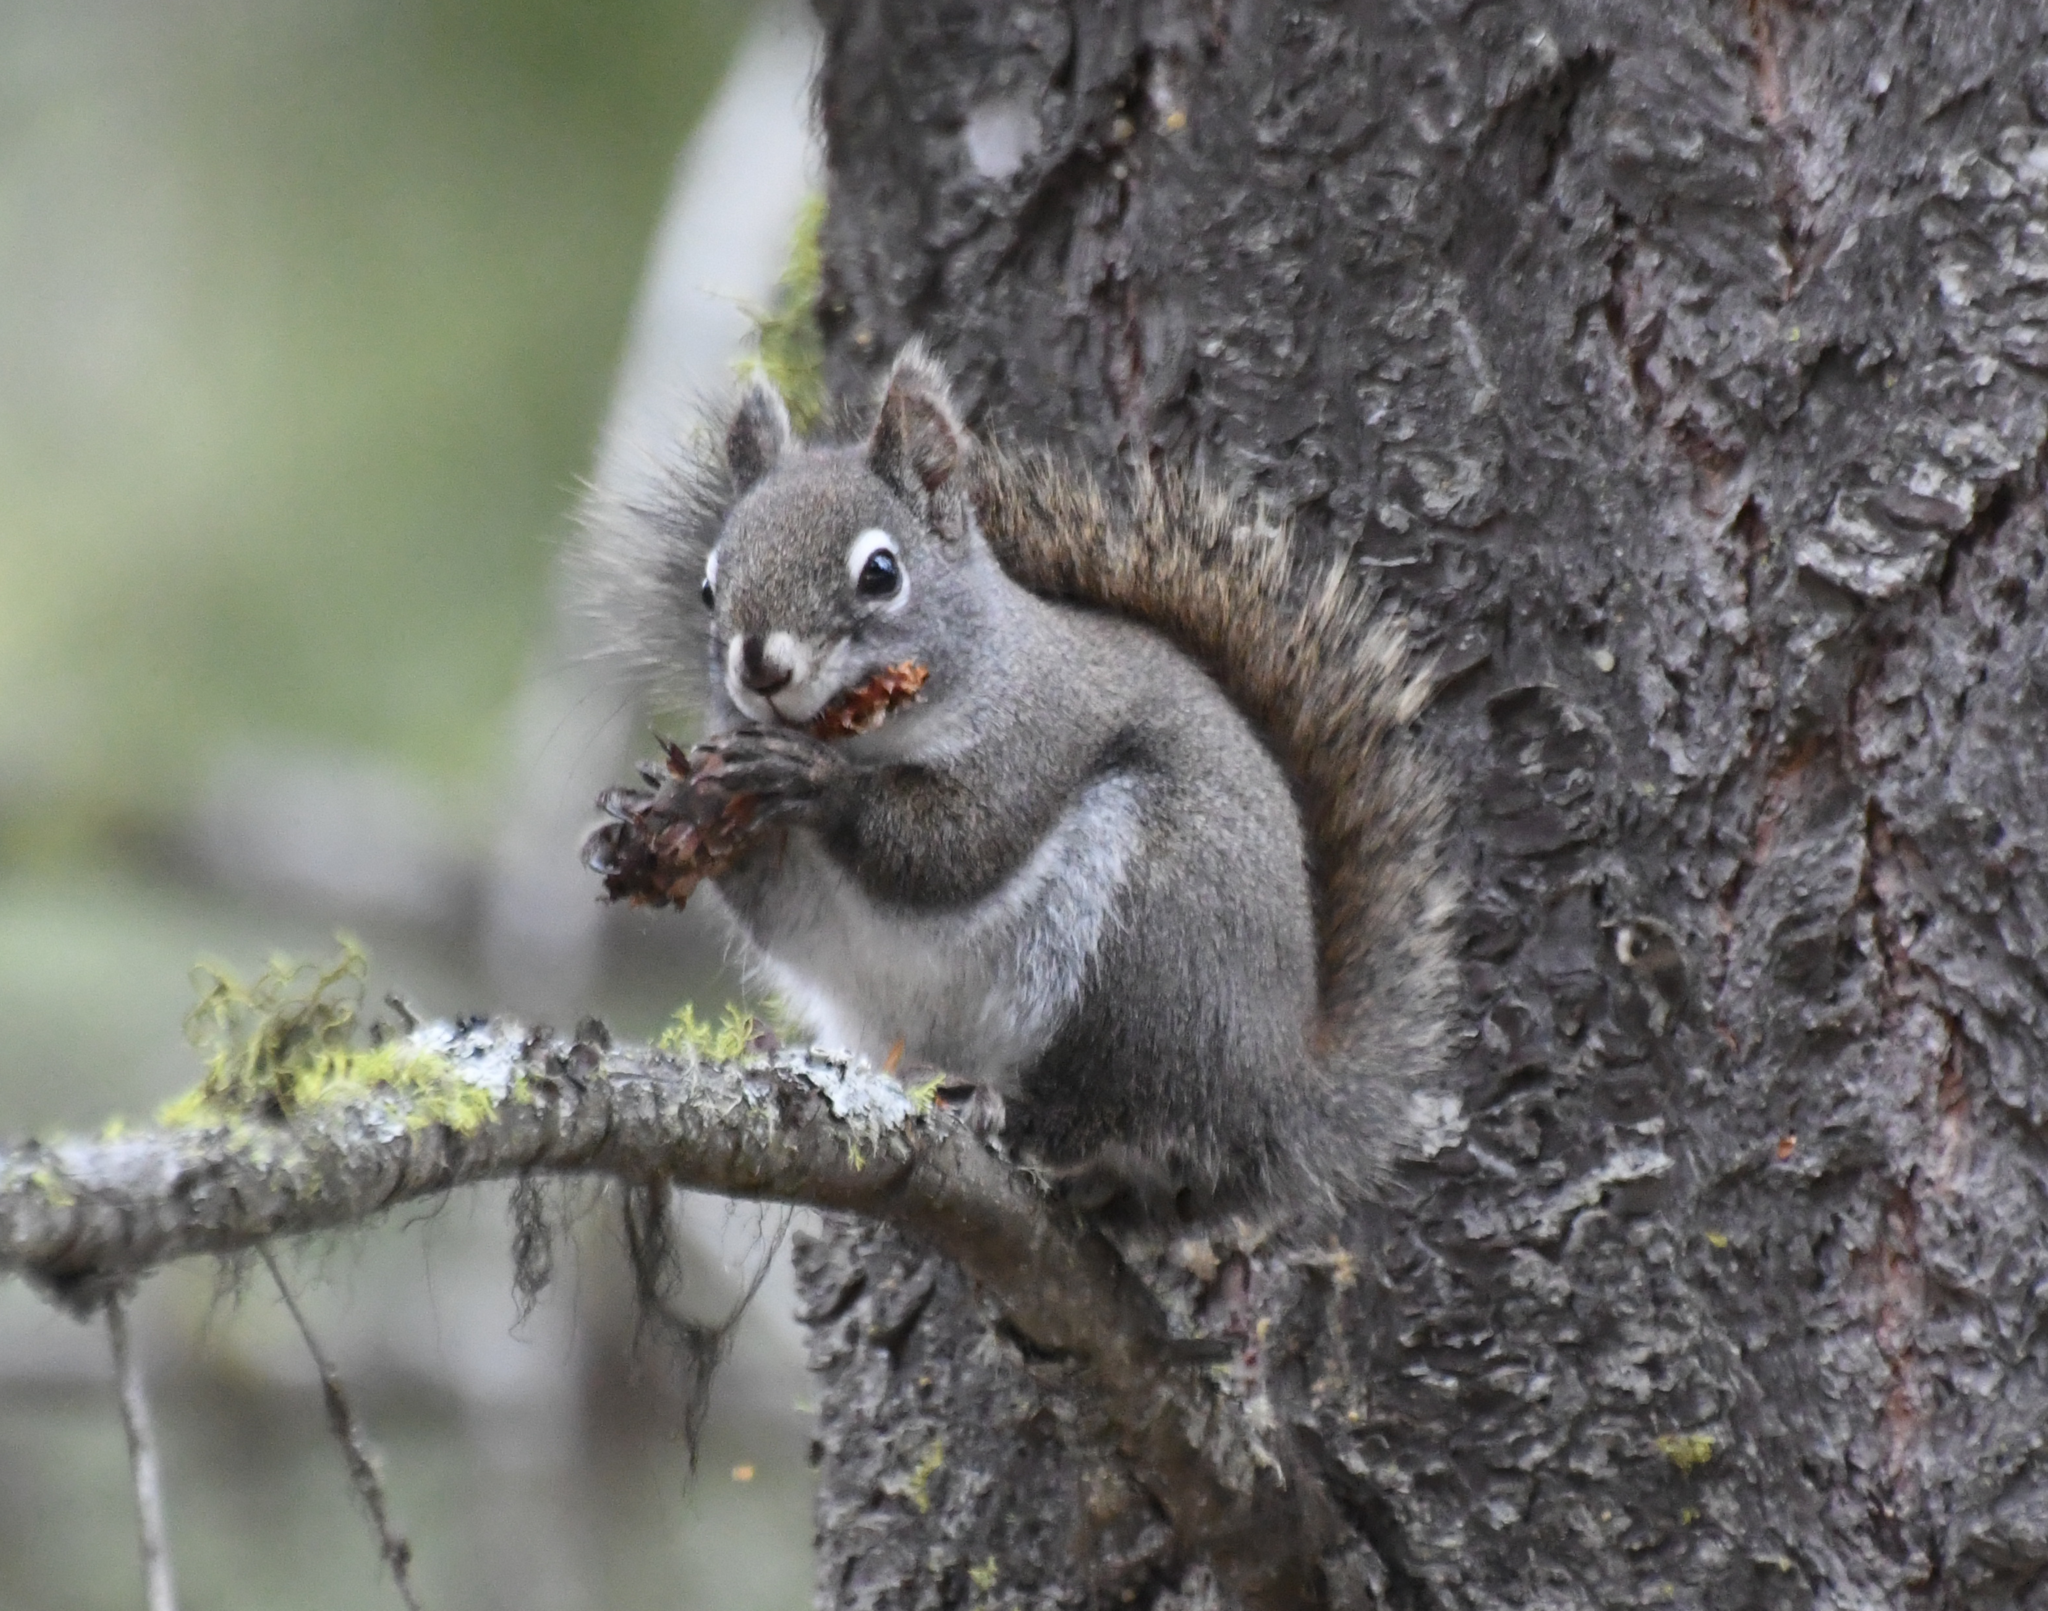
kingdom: Animalia
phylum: Chordata
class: Mammalia
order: Rodentia
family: Sciuridae
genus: Tamiasciurus
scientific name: Tamiasciurus hudsonicus
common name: Red squirrel
